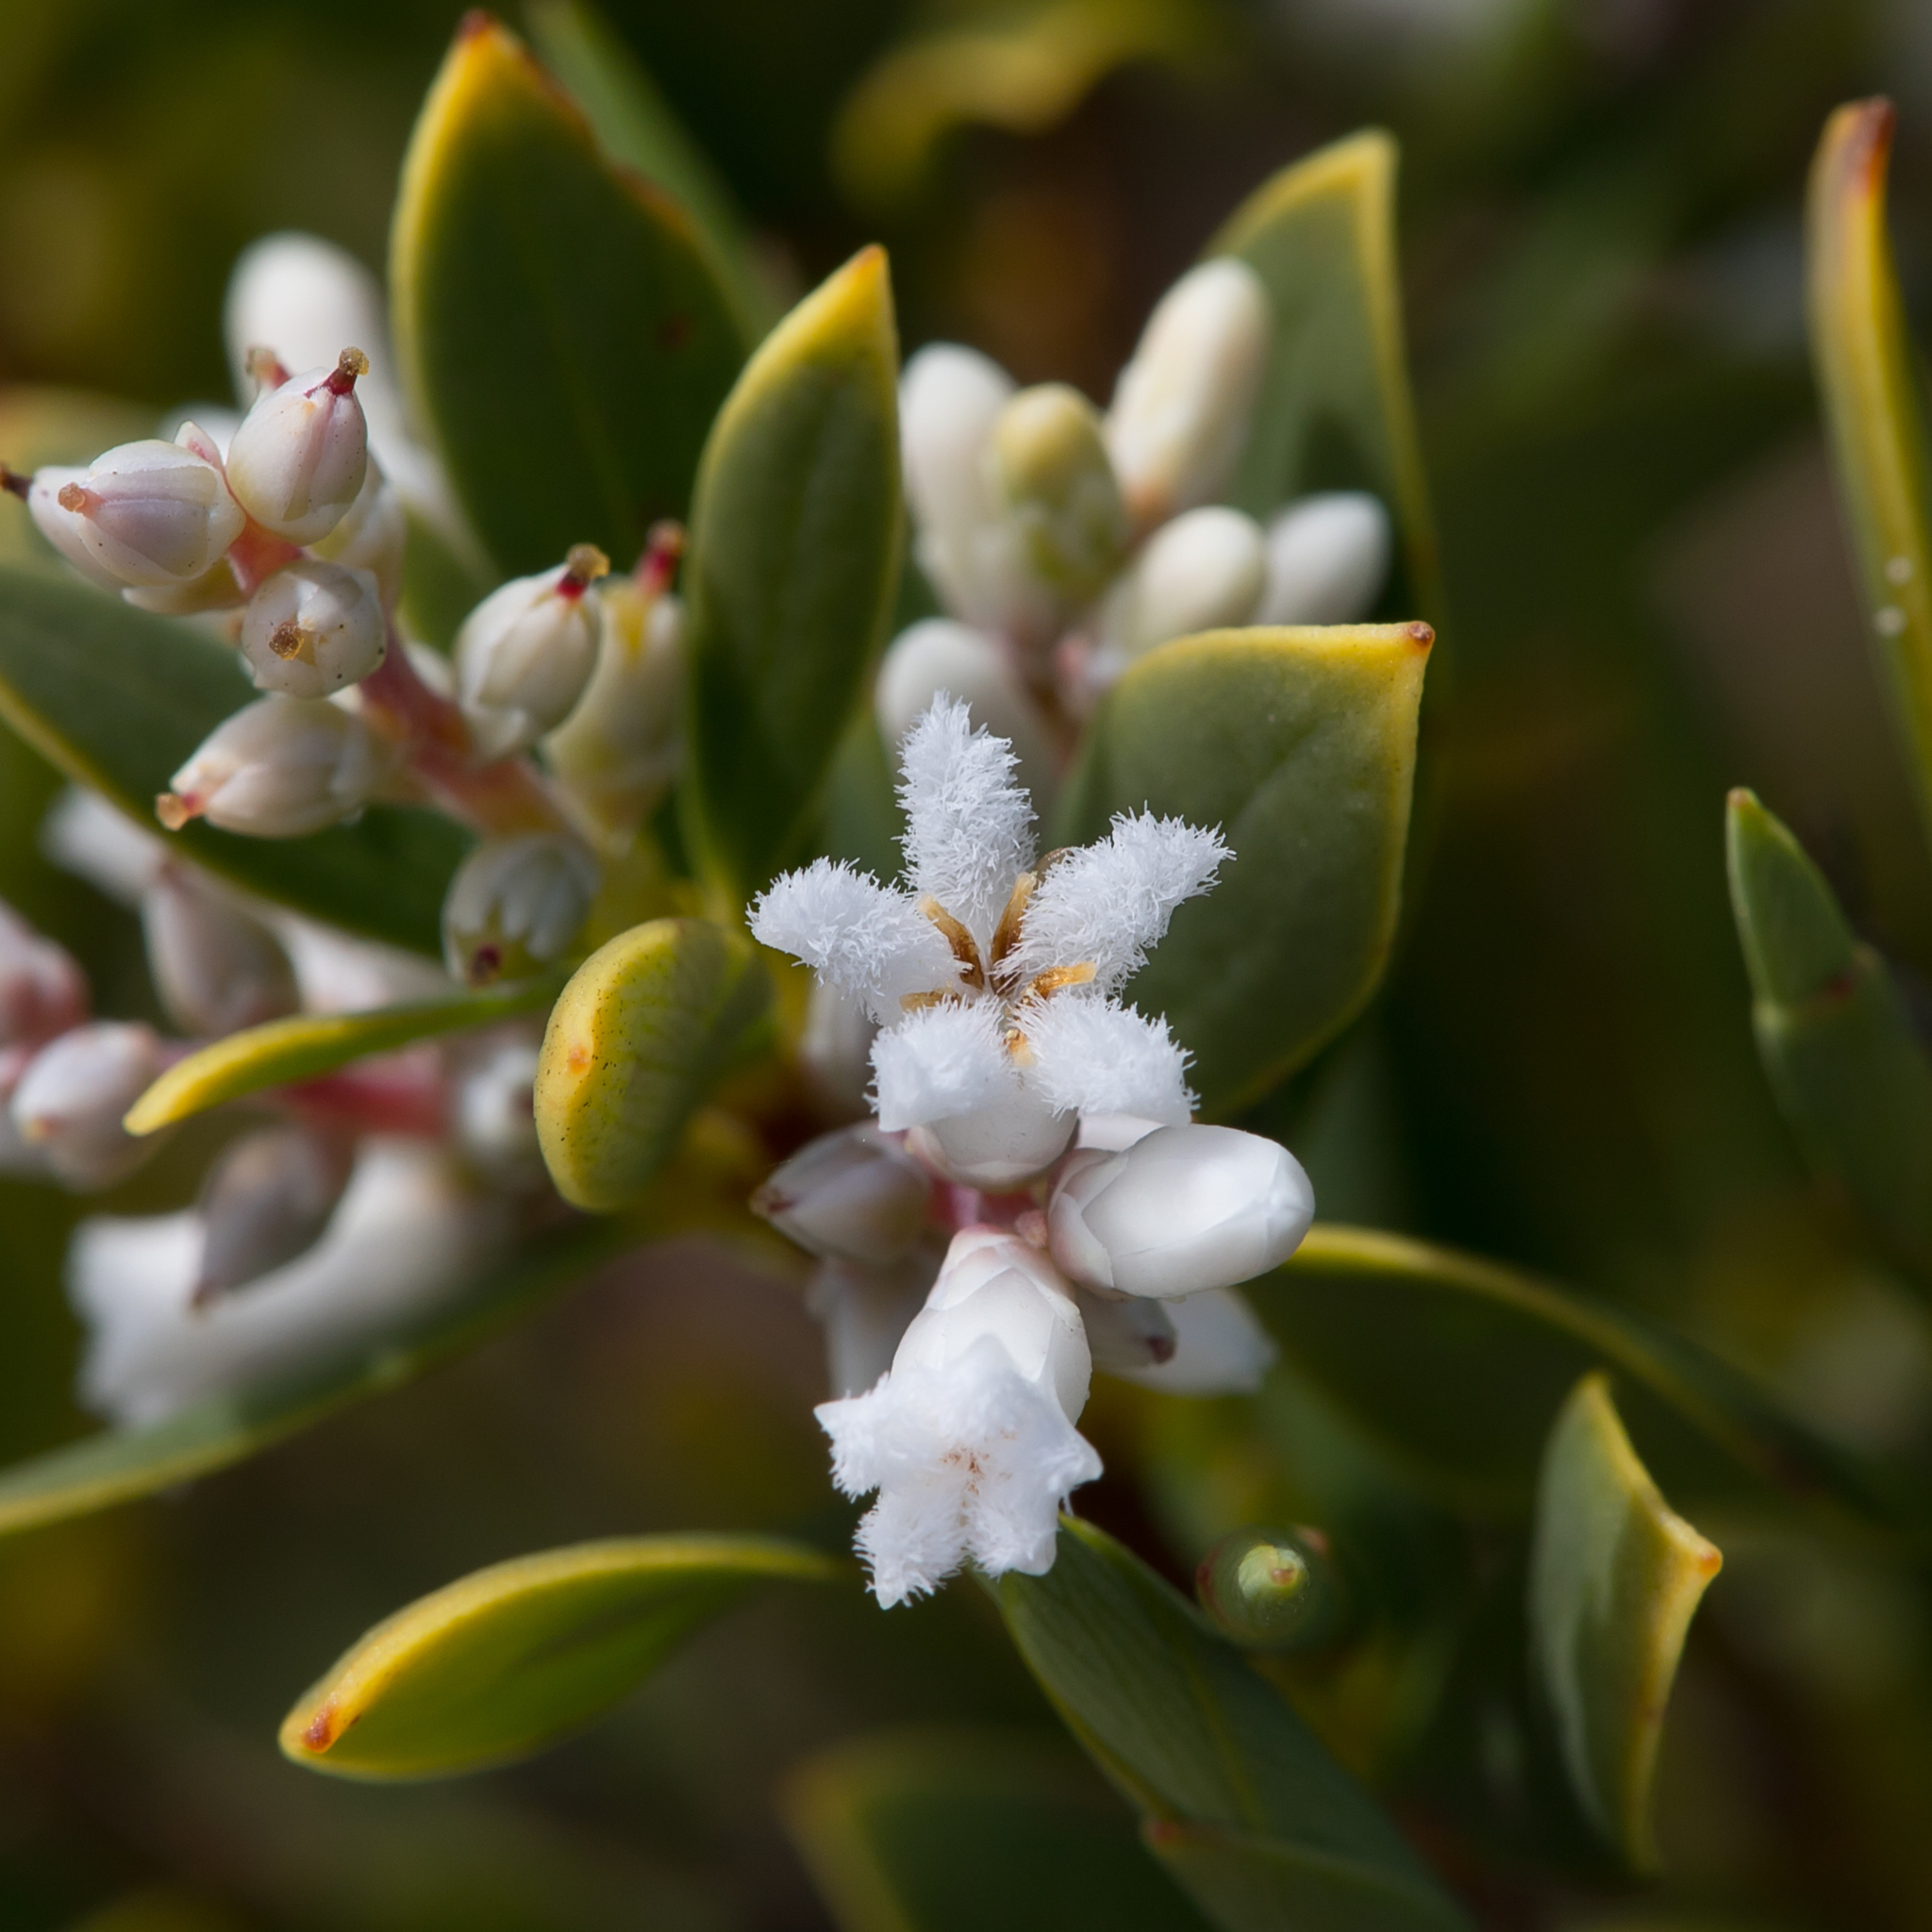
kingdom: Plantae
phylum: Tracheophyta
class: Magnoliopsida
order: Ericales
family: Ericaceae
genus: Leptecophylla
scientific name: Leptecophylla parvifolia
